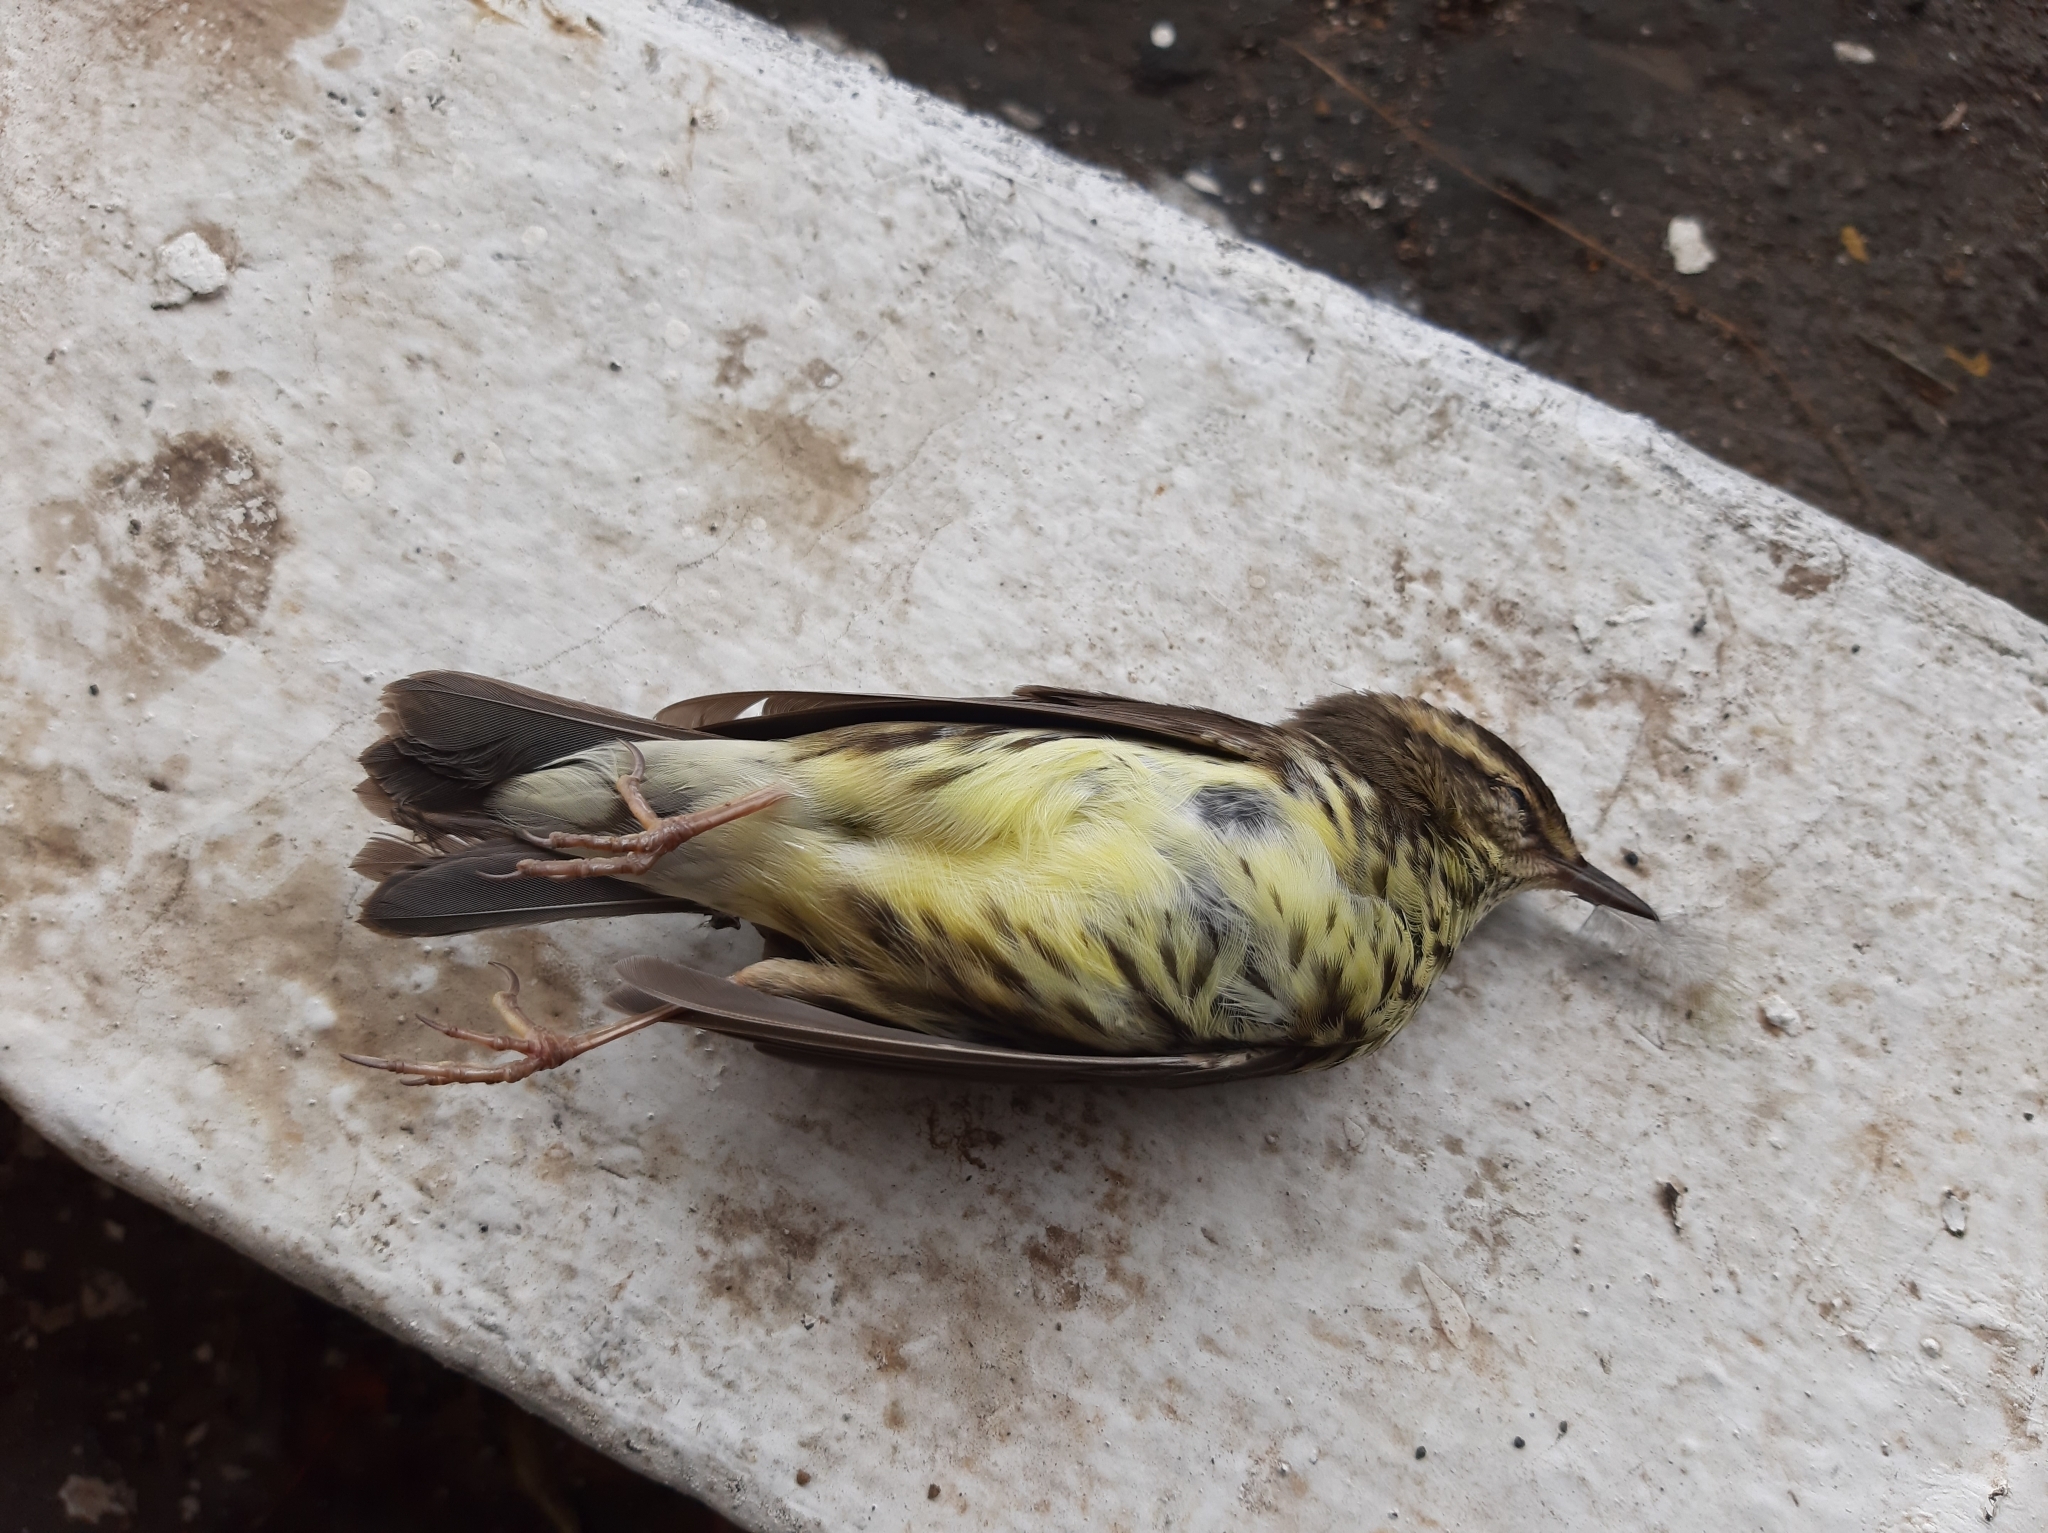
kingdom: Animalia
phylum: Chordata
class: Aves
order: Passeriformes
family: Parulidae
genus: Parkesia
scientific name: Parkesia noveboracensis
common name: Northern waterthrush
